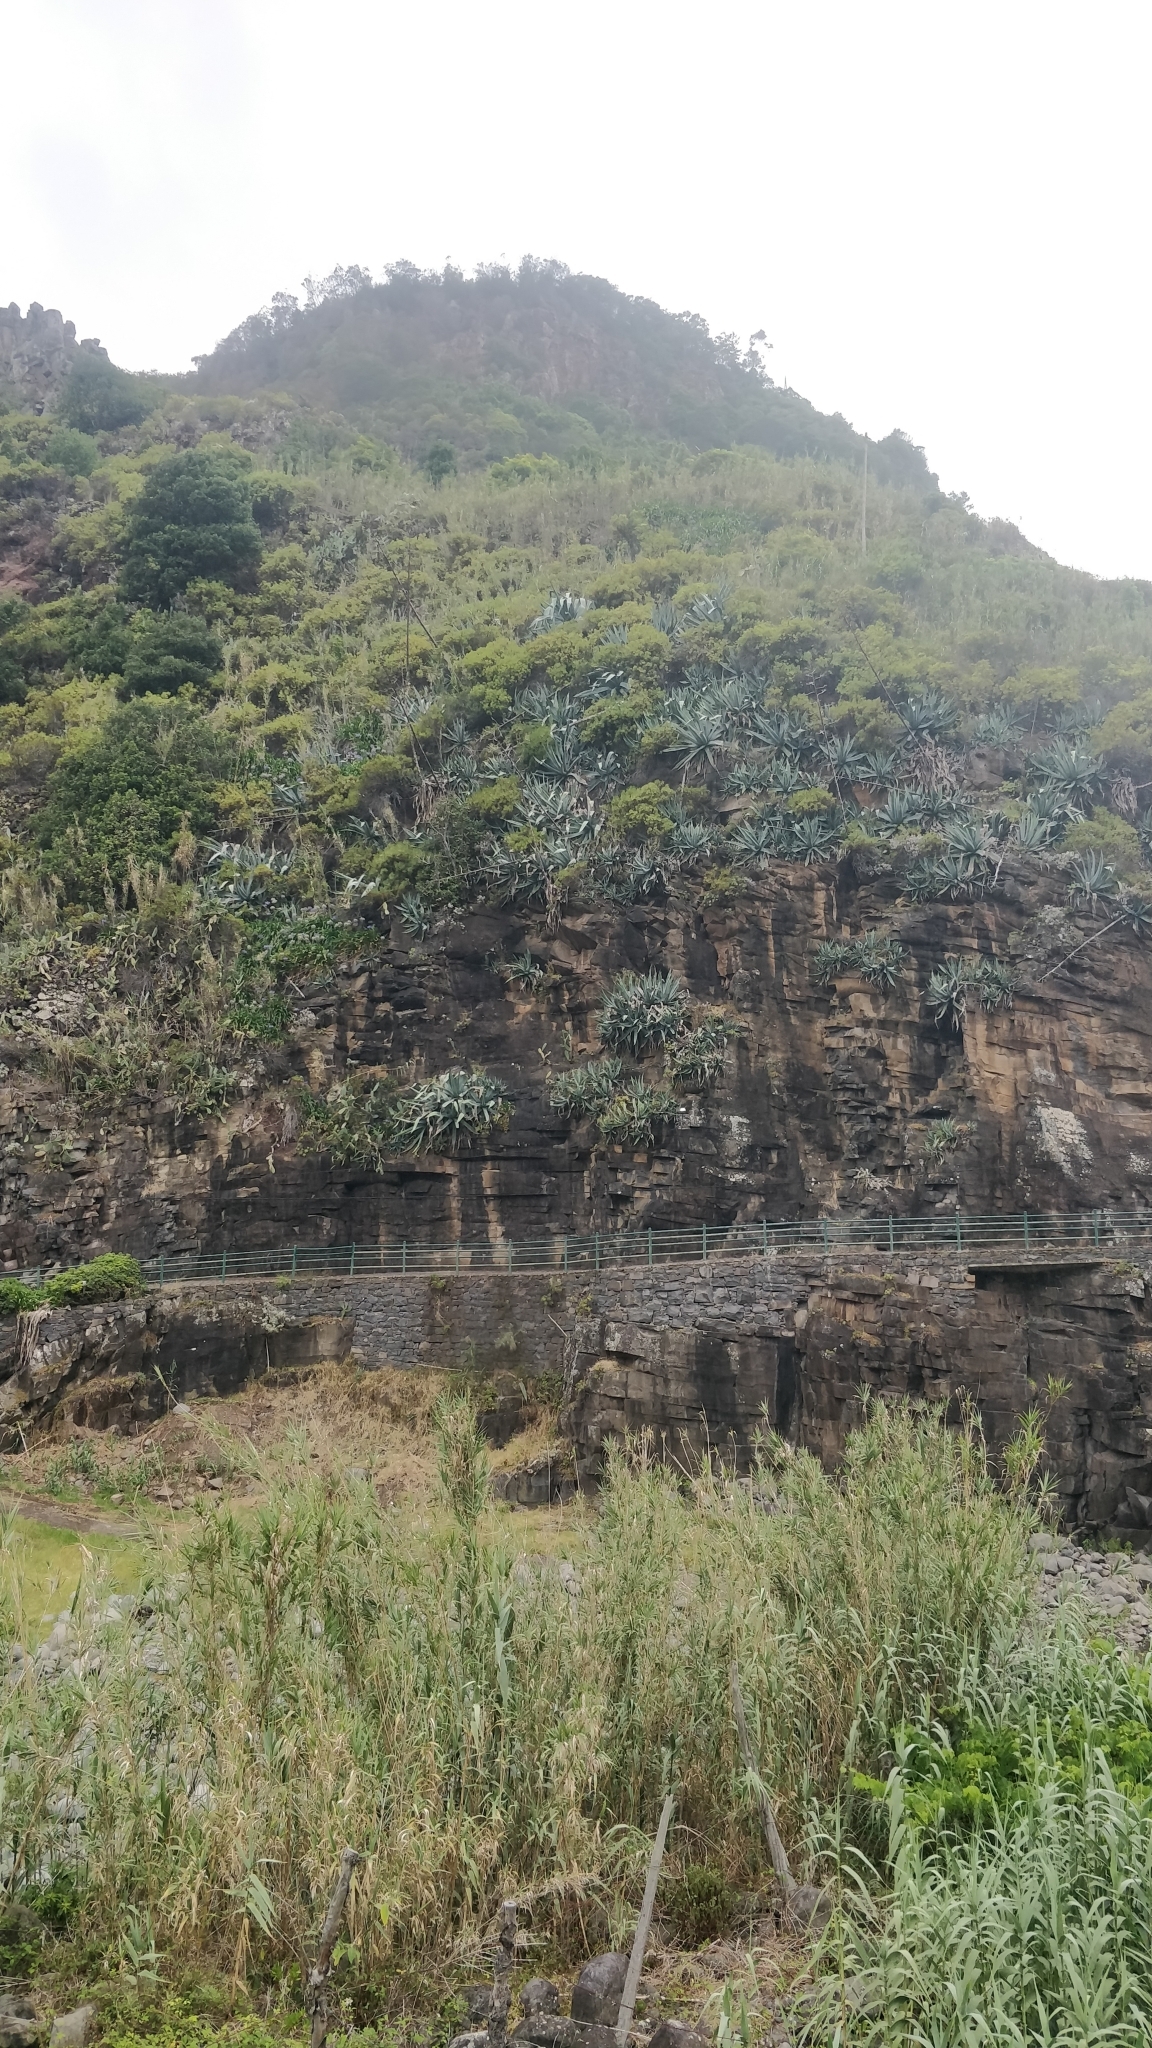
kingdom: Plantae
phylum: Tracheophyta
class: Liliopsida
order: Asparagales
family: Asparagaceae
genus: Agave
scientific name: Agave americana
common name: Centuryplant
